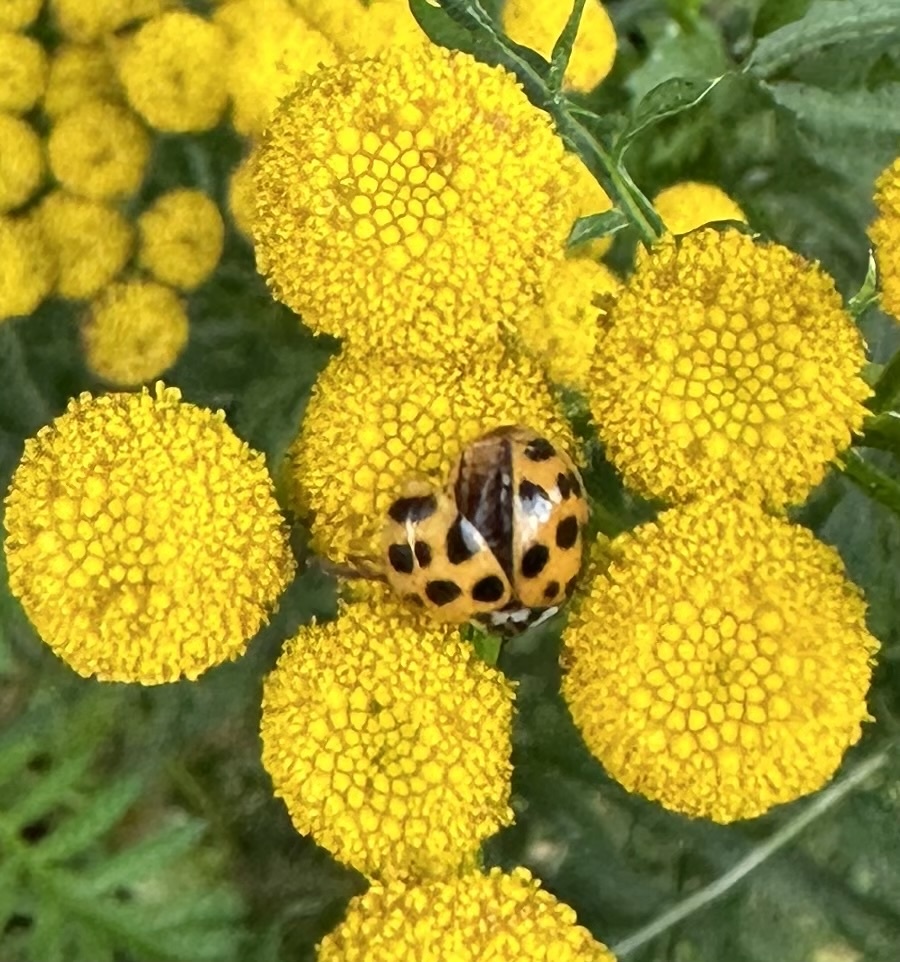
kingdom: Animalia
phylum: Arthropoda
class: Insecta
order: Coleoptera
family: Coccinellidae
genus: Harmonia
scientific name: Harmonia axyridis
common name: Harlequin ladybird
